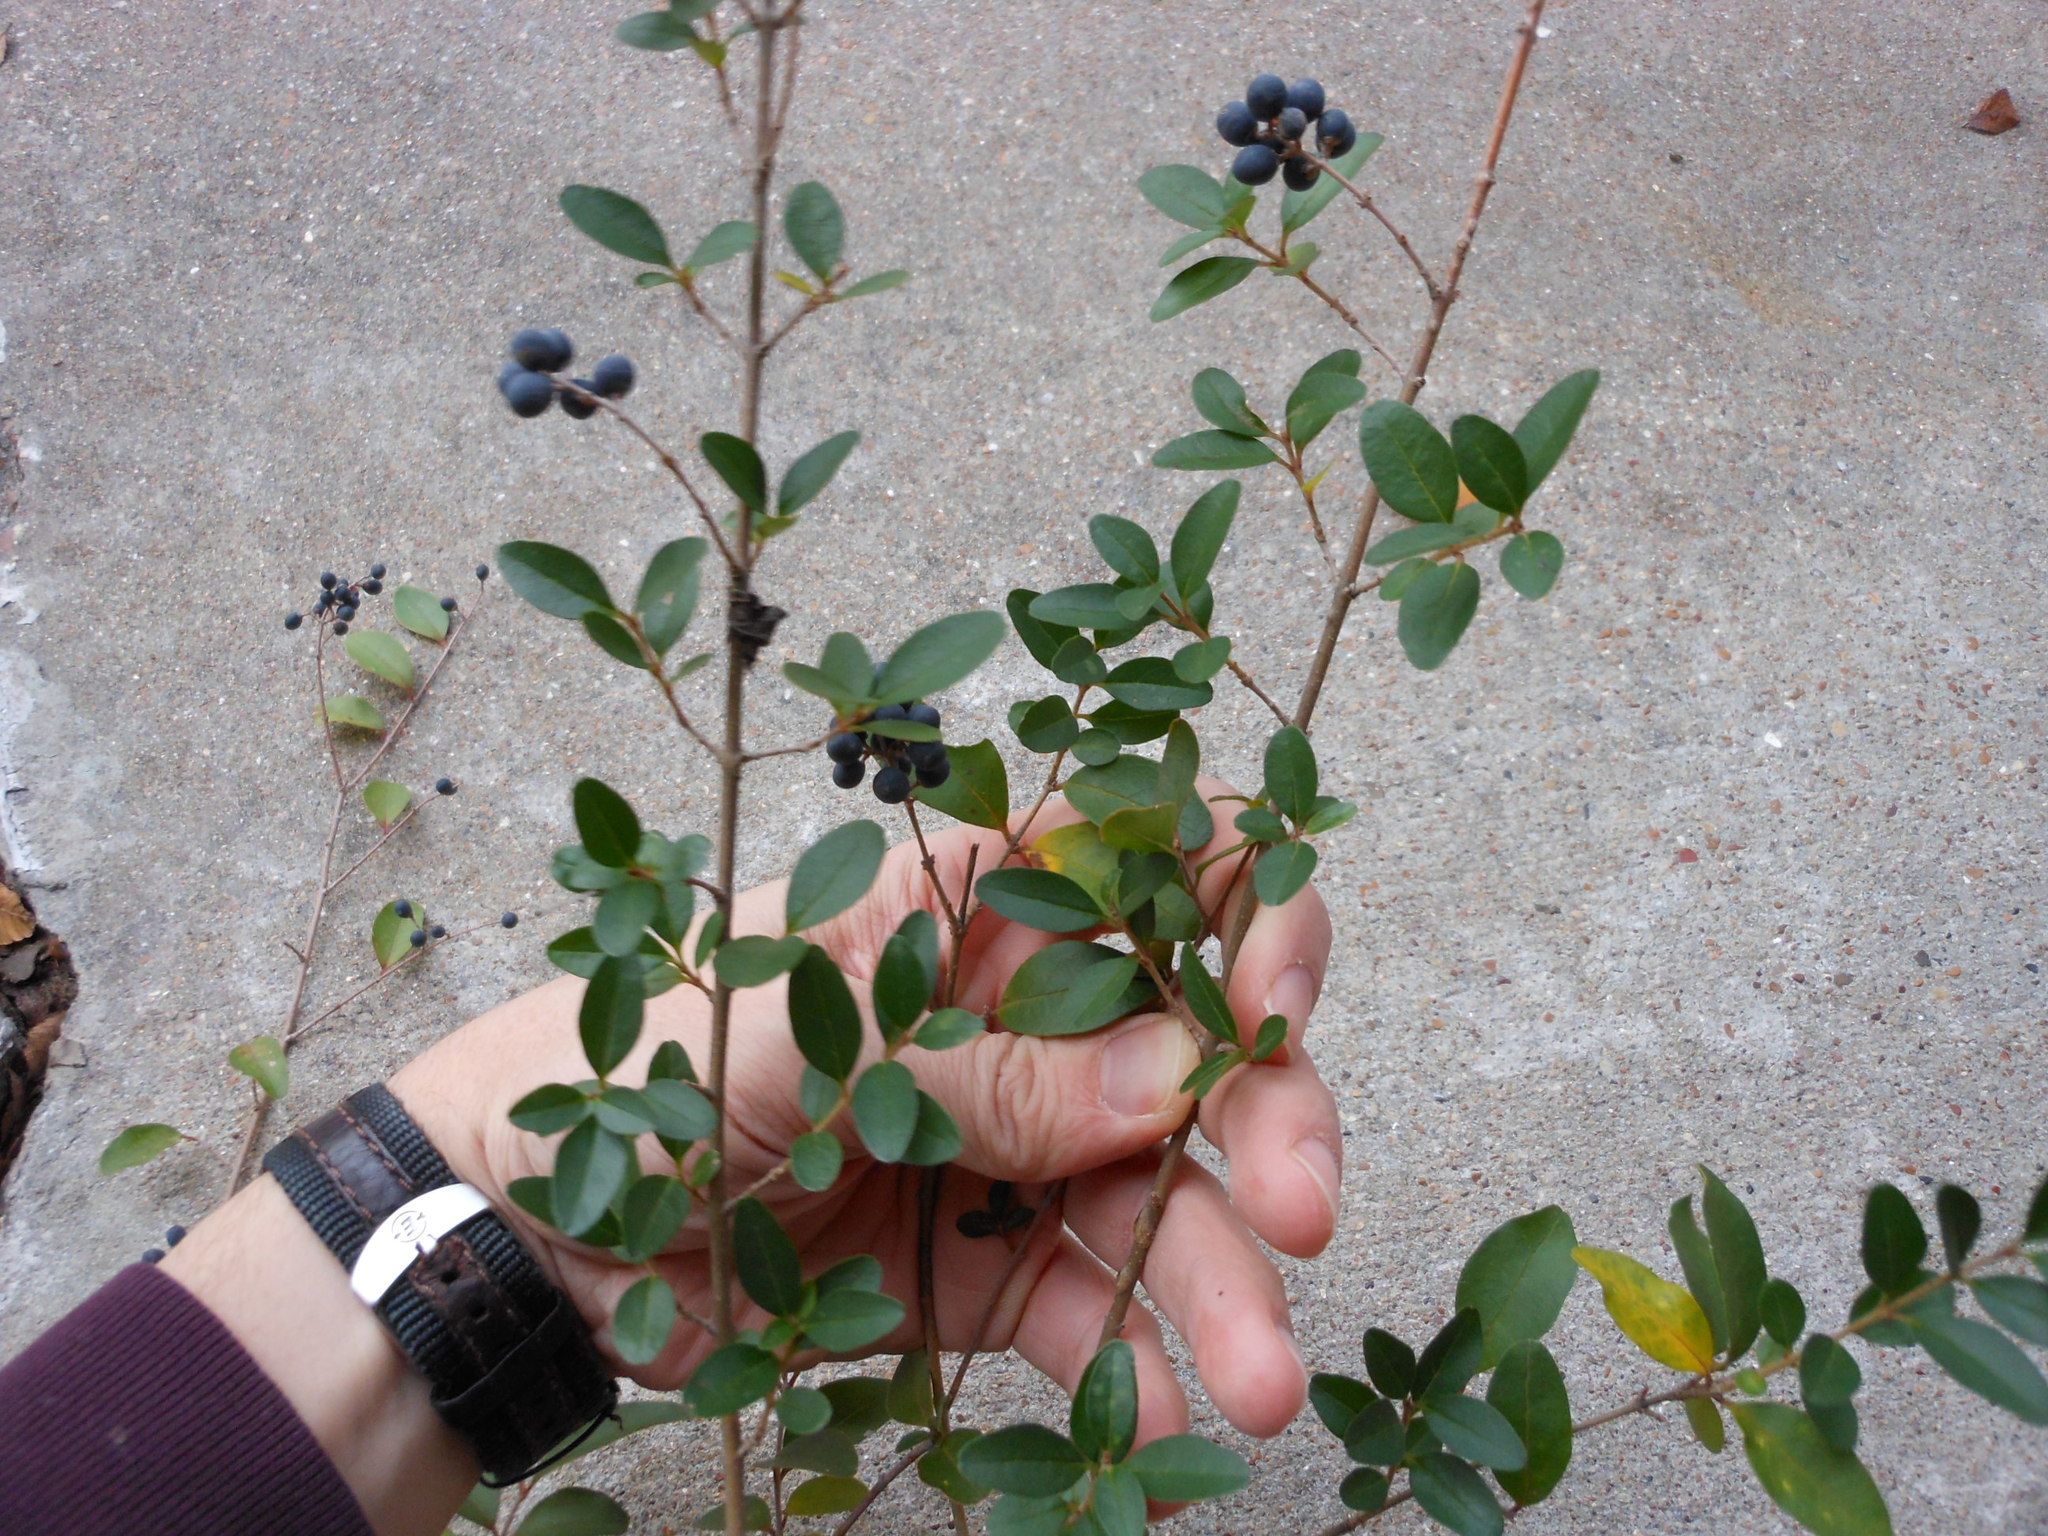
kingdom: Plantae
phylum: Tracheophyta
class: Magnoliopsida
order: Lamiales
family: Oleaceae
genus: Ligustrum
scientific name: Ligustrum sinense
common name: Chinese privet
